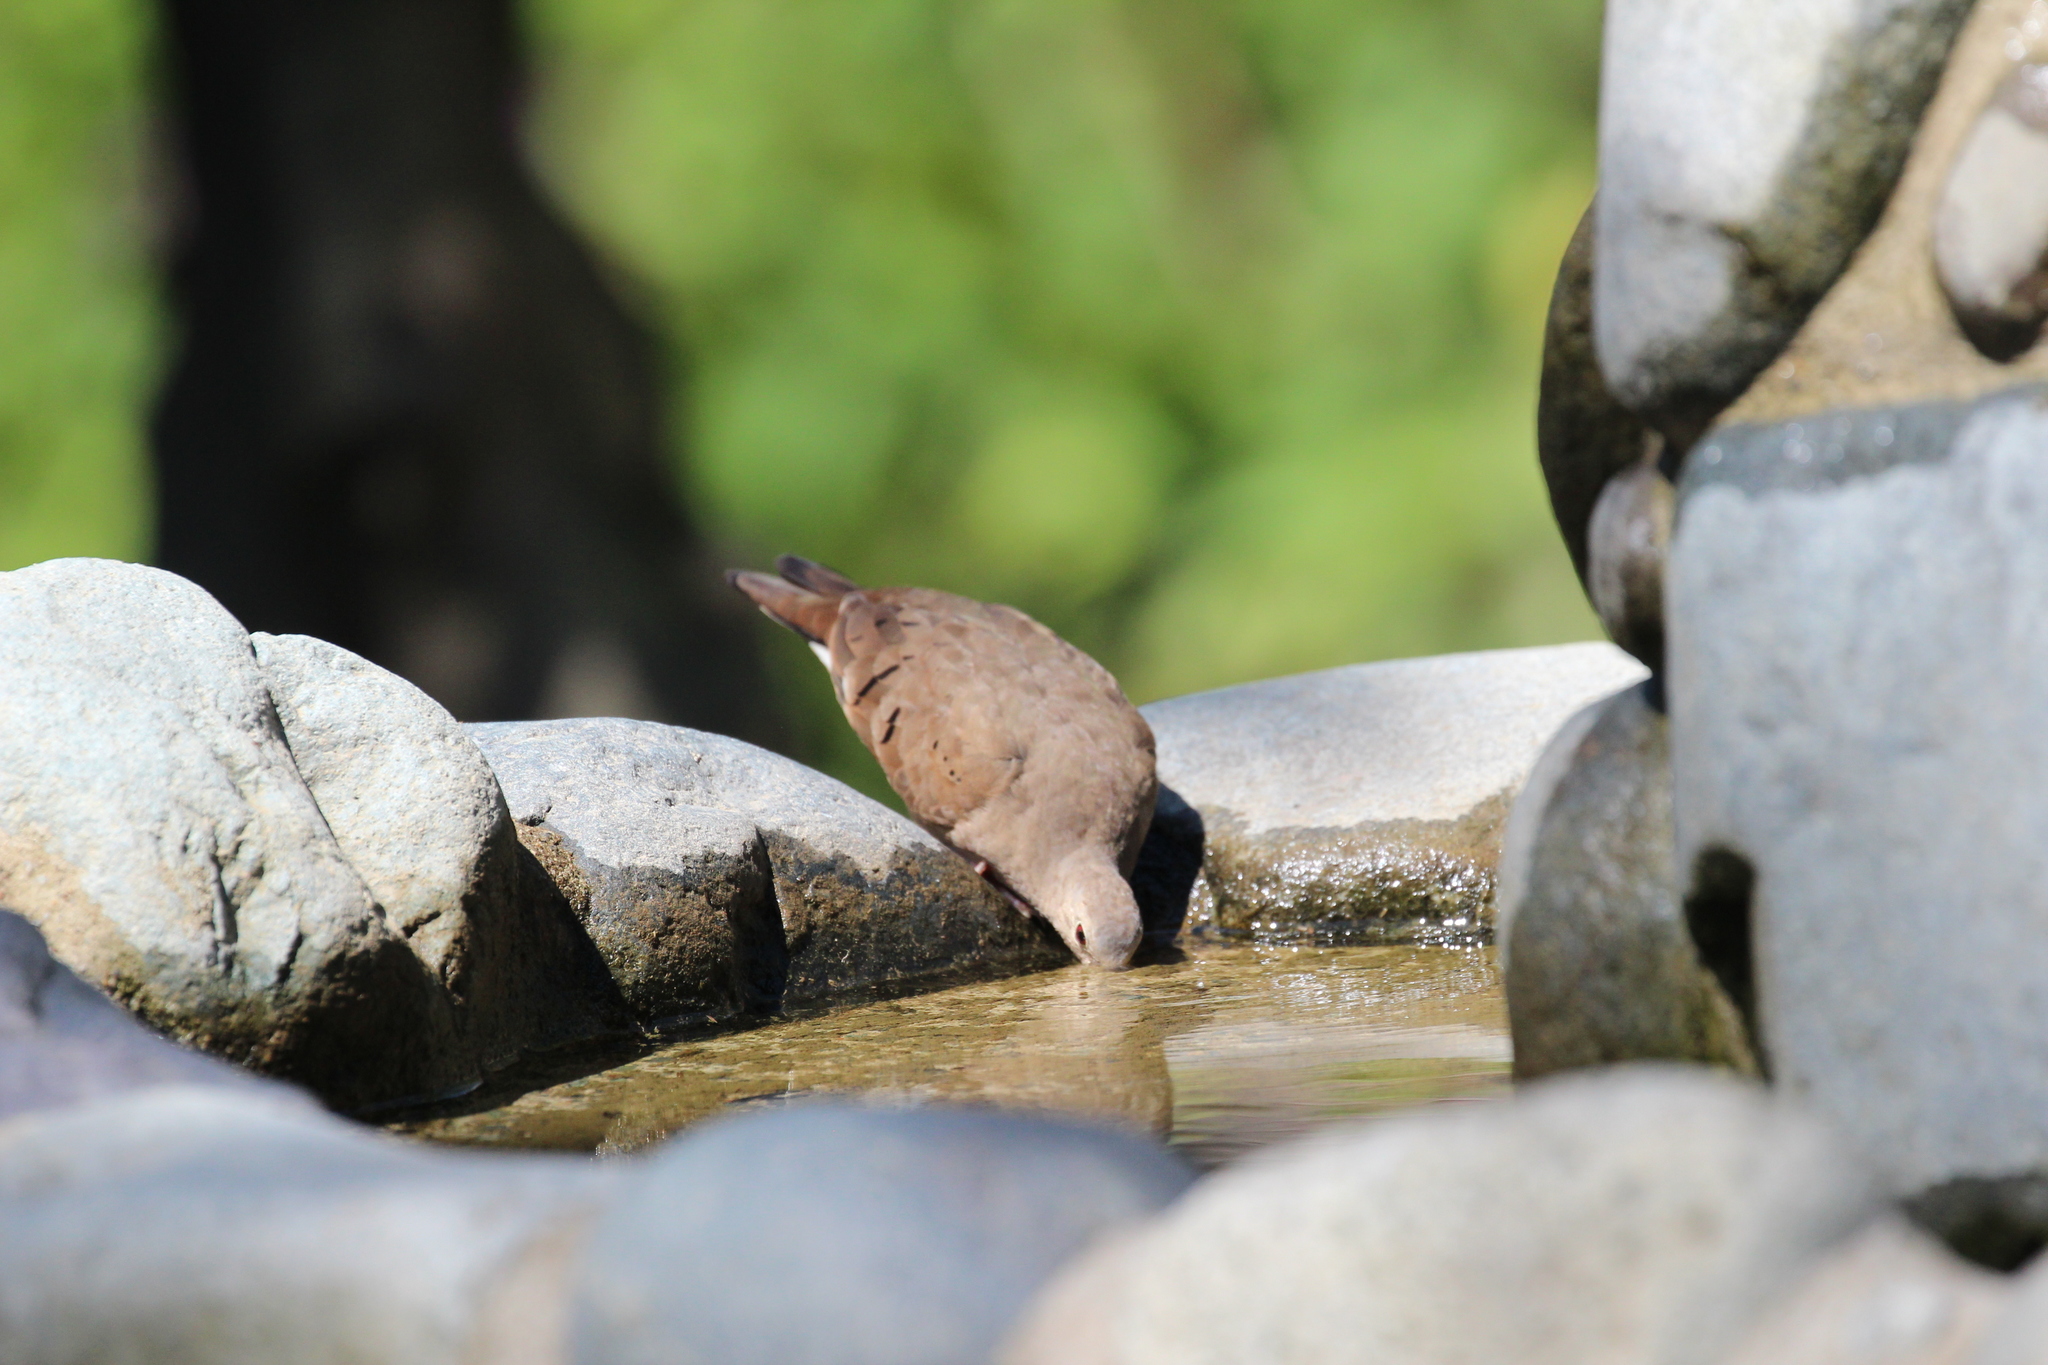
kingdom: Animalia
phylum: Chordata
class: Aves
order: Columbiformes
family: Columbidae
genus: Columbina
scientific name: Columbina talpacoti
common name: Ruddy ground dove
